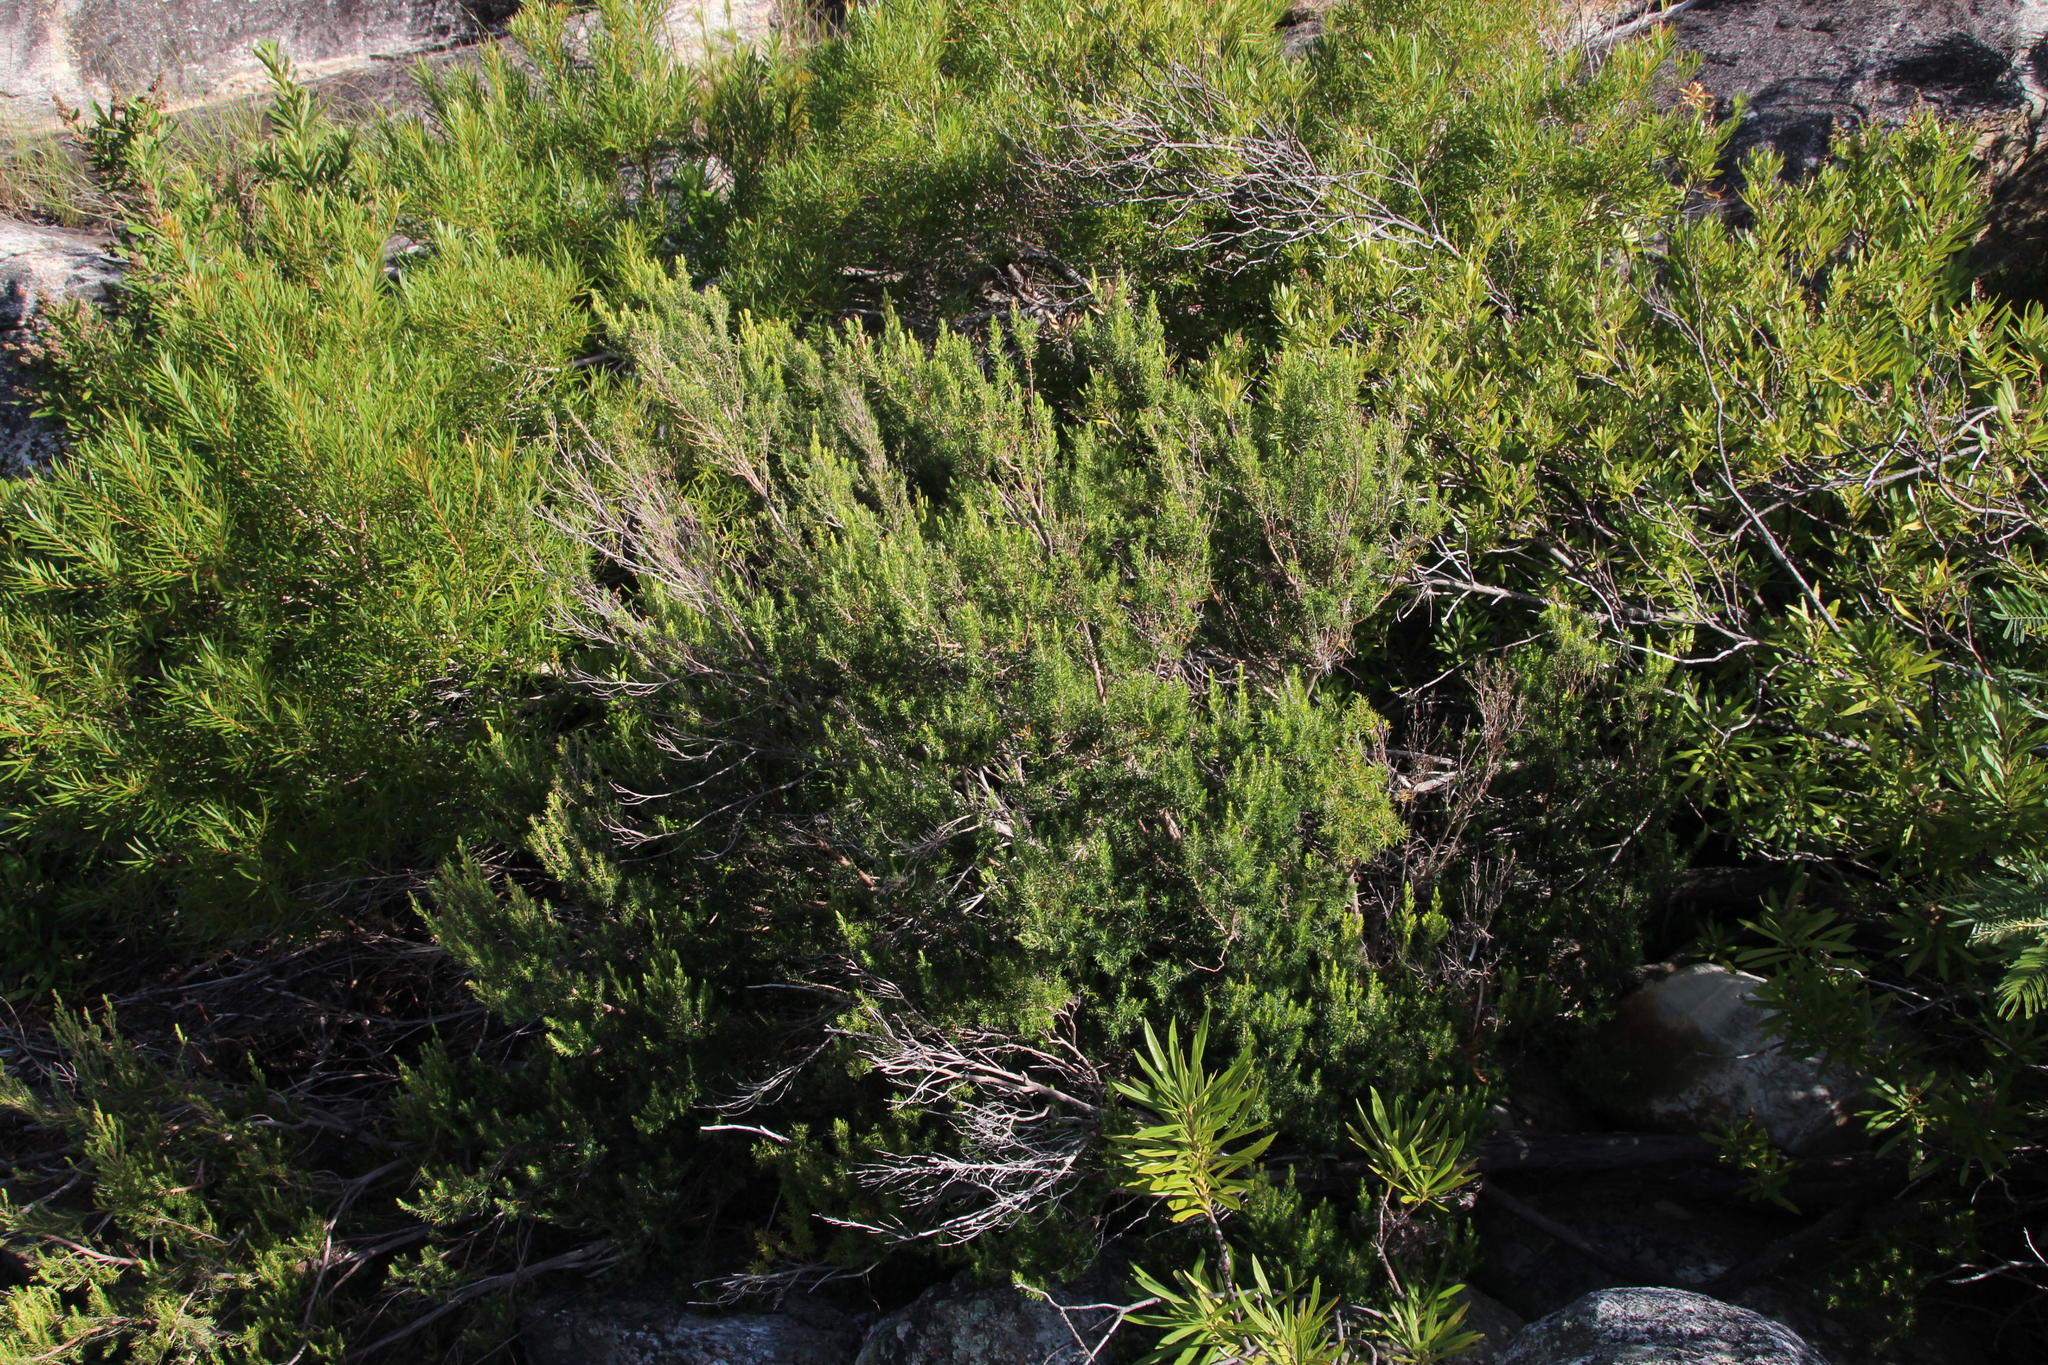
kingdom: Plantae
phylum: Tracheophyta
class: Magnoliopsida
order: Ericales
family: Ericaceae
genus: Erica
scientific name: Erica caffra
